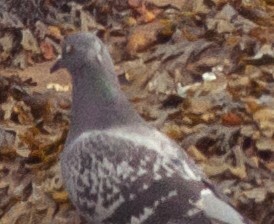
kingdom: Animalia
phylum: Chordata
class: Aves
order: Columbiformes
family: Columbidae
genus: Columba
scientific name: Columba livia
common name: Rock pigeon
